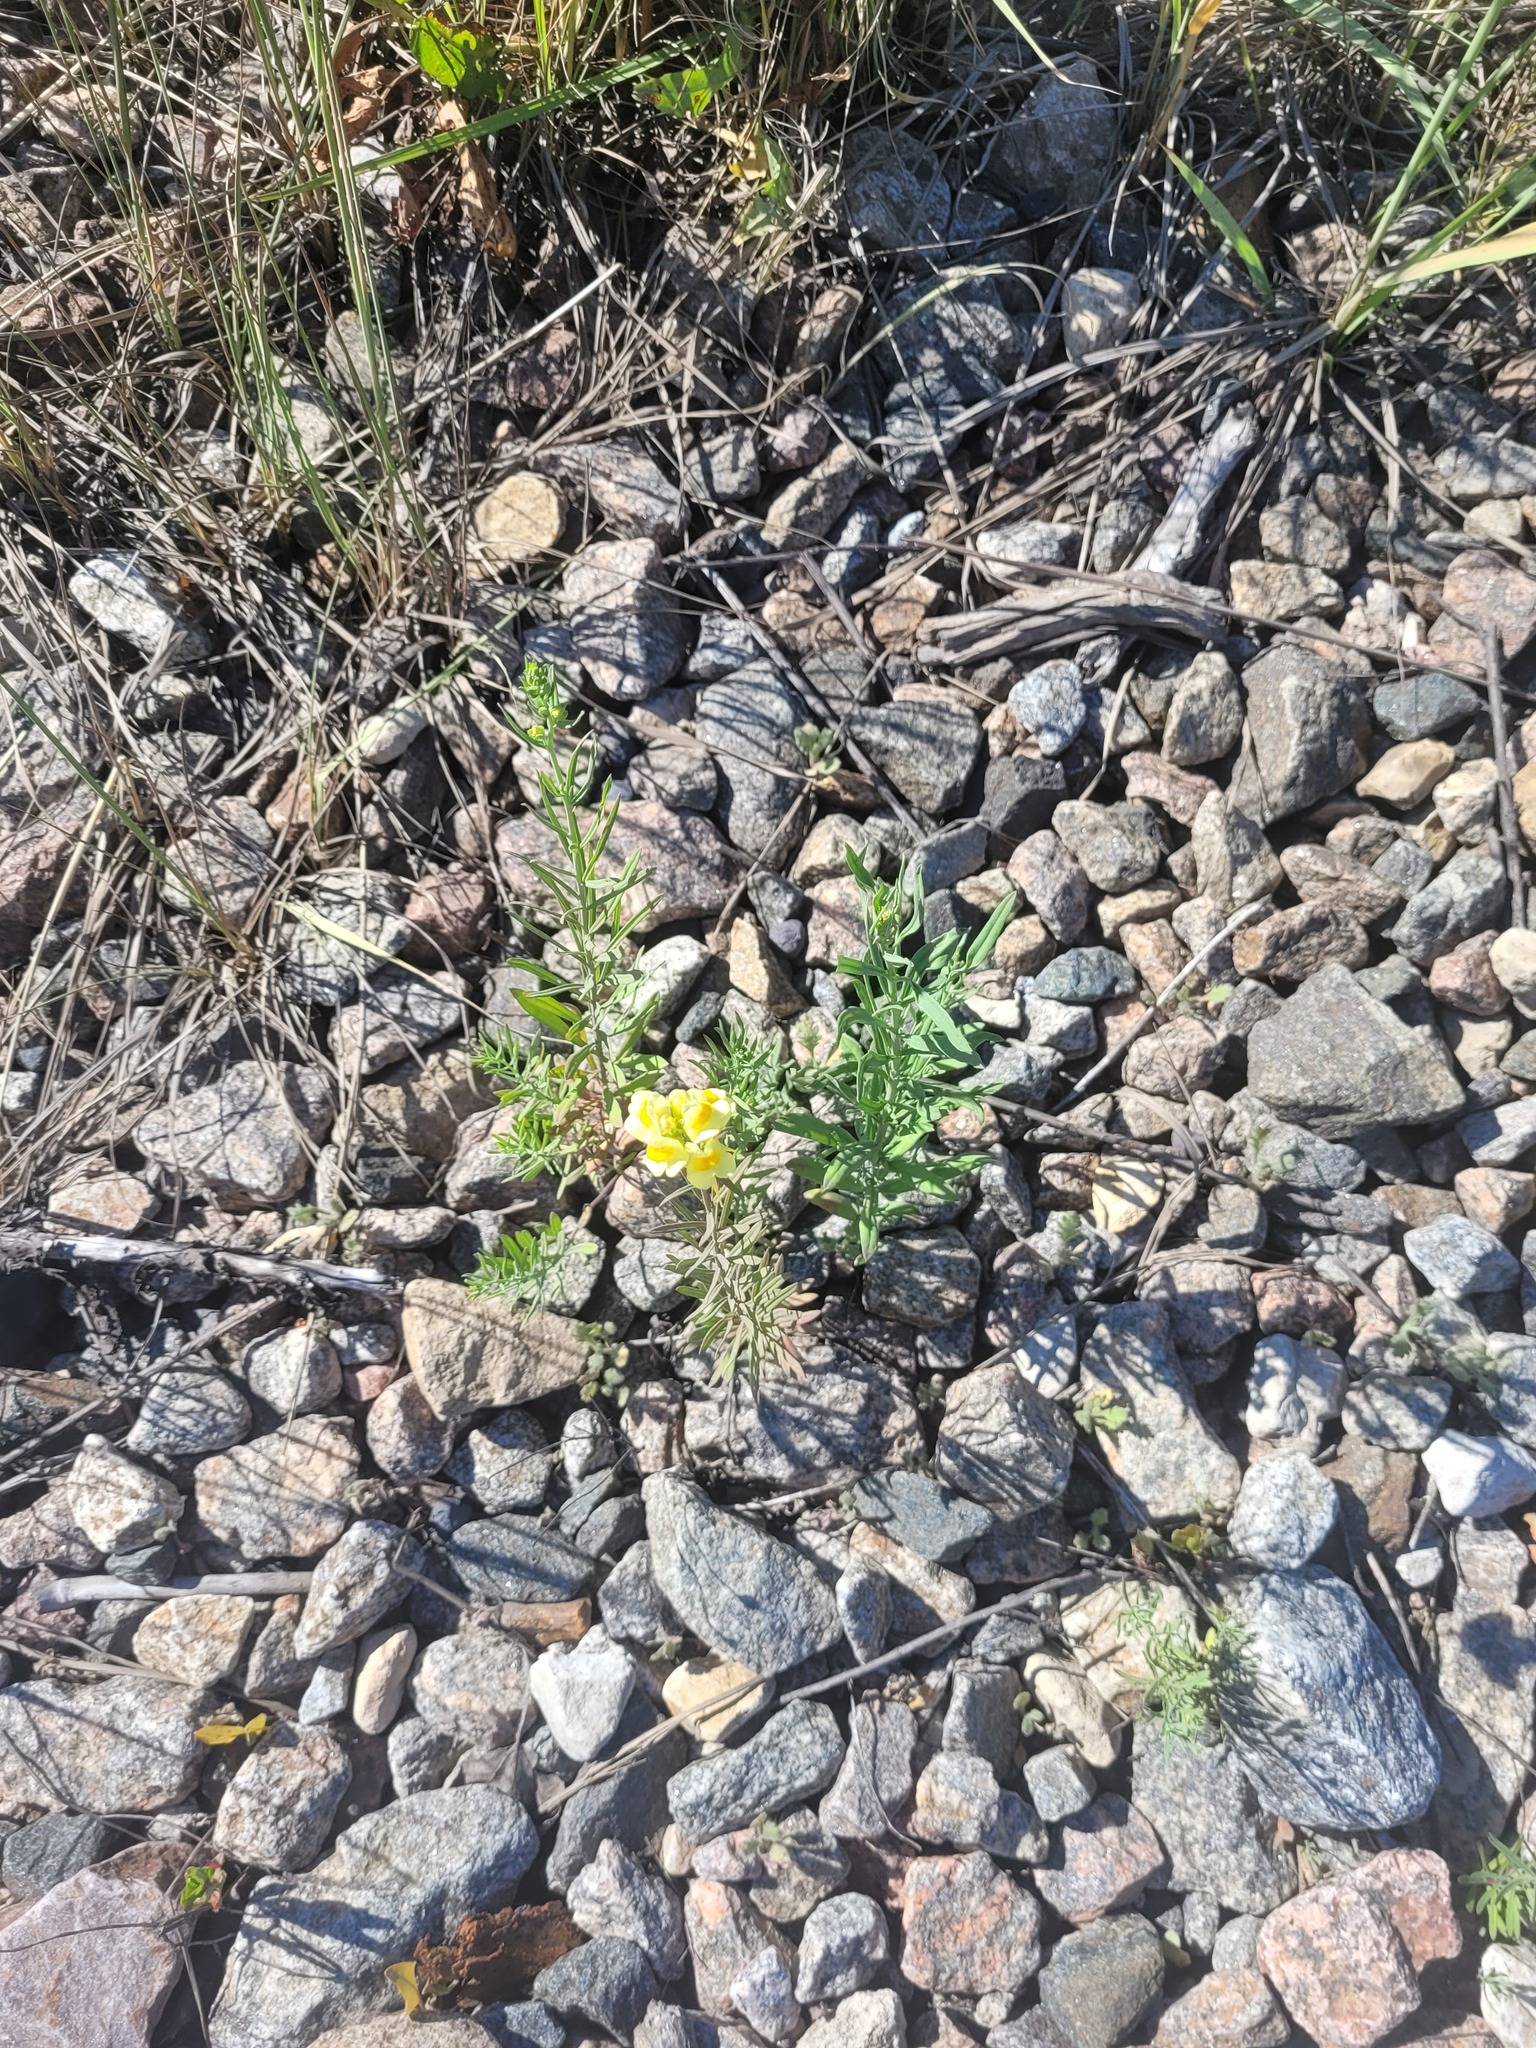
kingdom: Plantae
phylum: Tracheophyta
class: Magnoliopsida
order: Lamiales
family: Plantaginaceae
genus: Linaria
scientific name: Linaria vulgaris
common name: Butter and eggs
